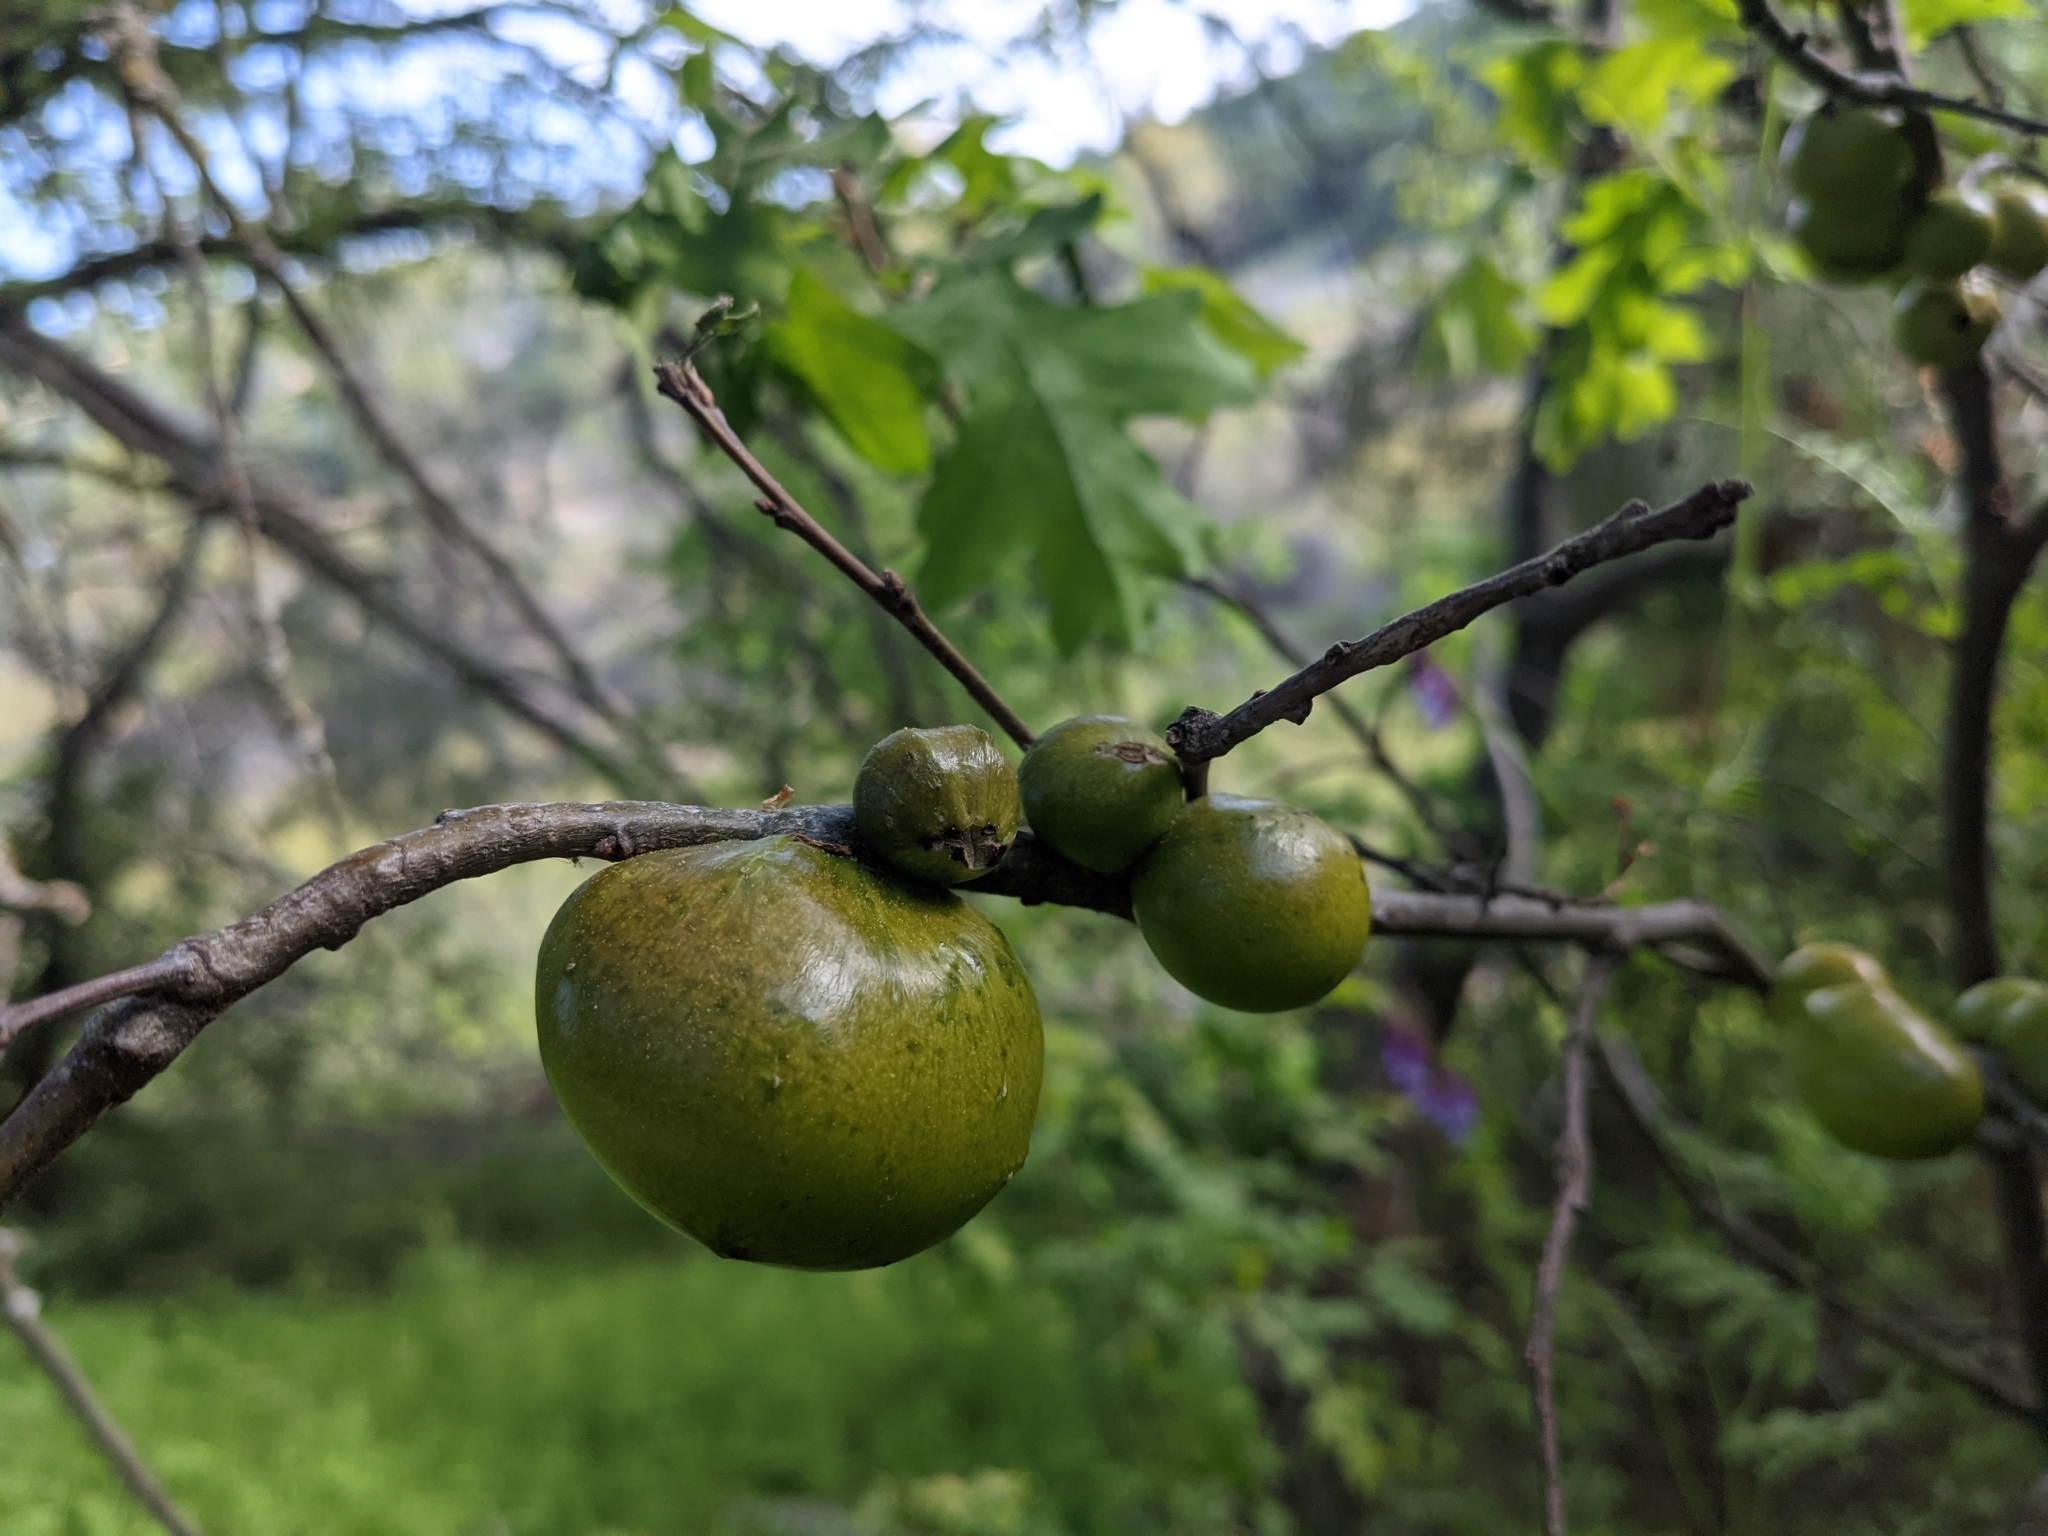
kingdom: Plantae
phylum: Tracheophyta
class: Magnoliopsida
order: Fagales
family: Fagaceae
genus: Quercus
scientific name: Quercus lobata
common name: Valley oak
